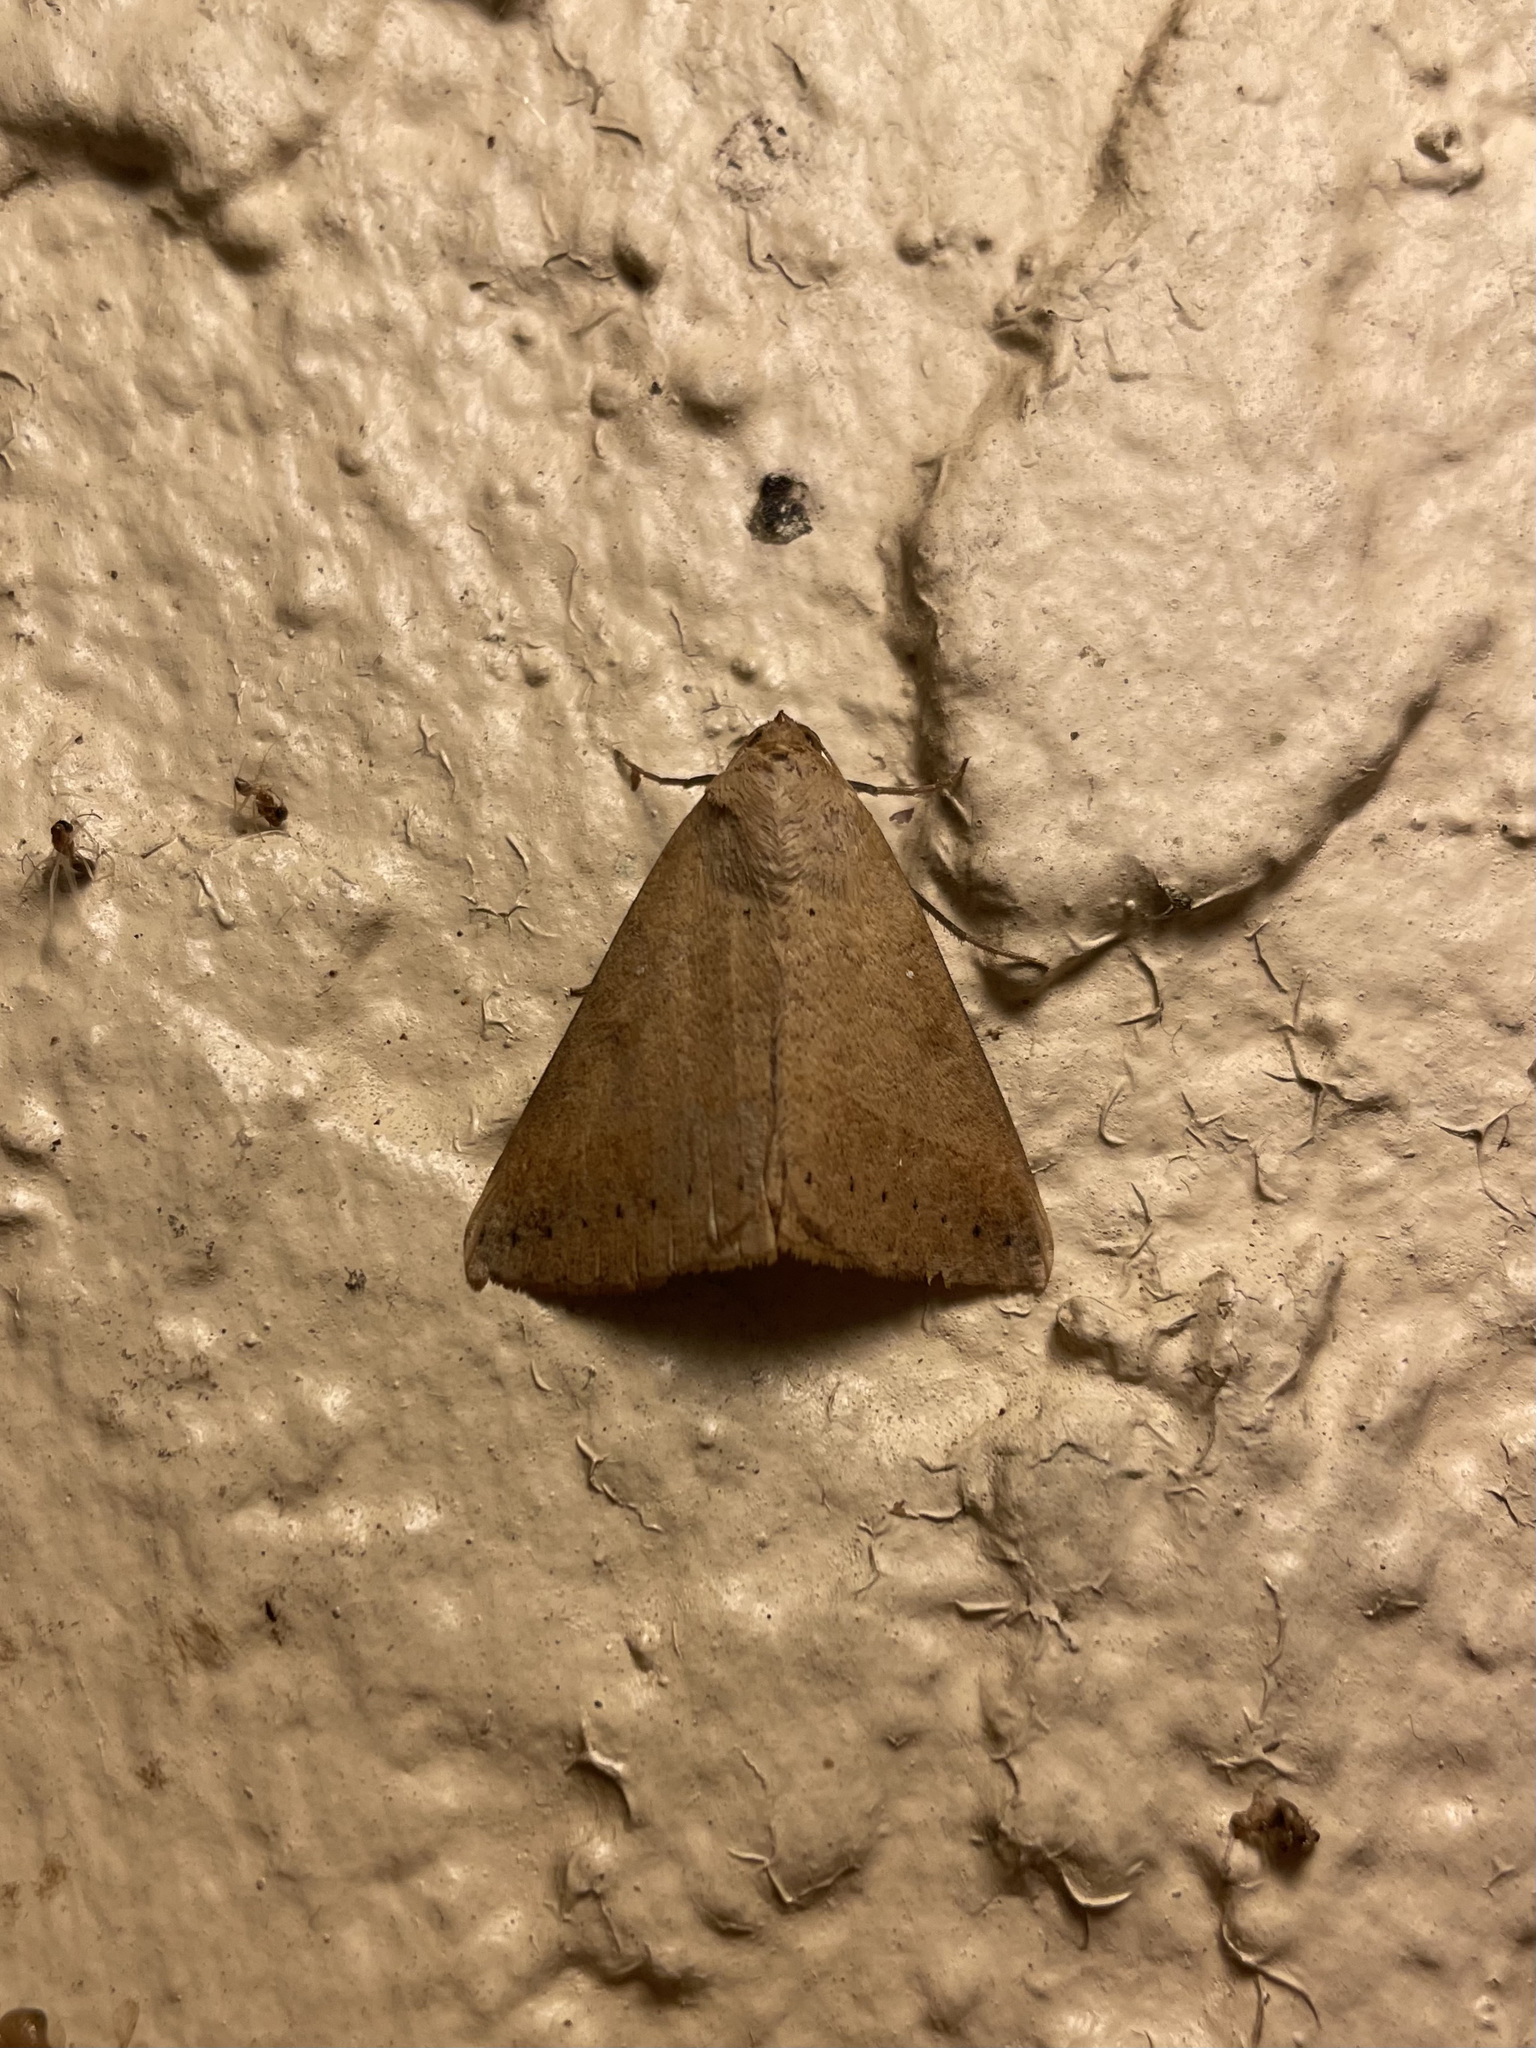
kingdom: Animalia
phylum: Arthropoda
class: Insecta
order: Lepidoptera
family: Erebidae
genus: Mocis
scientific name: Mocis marcida
